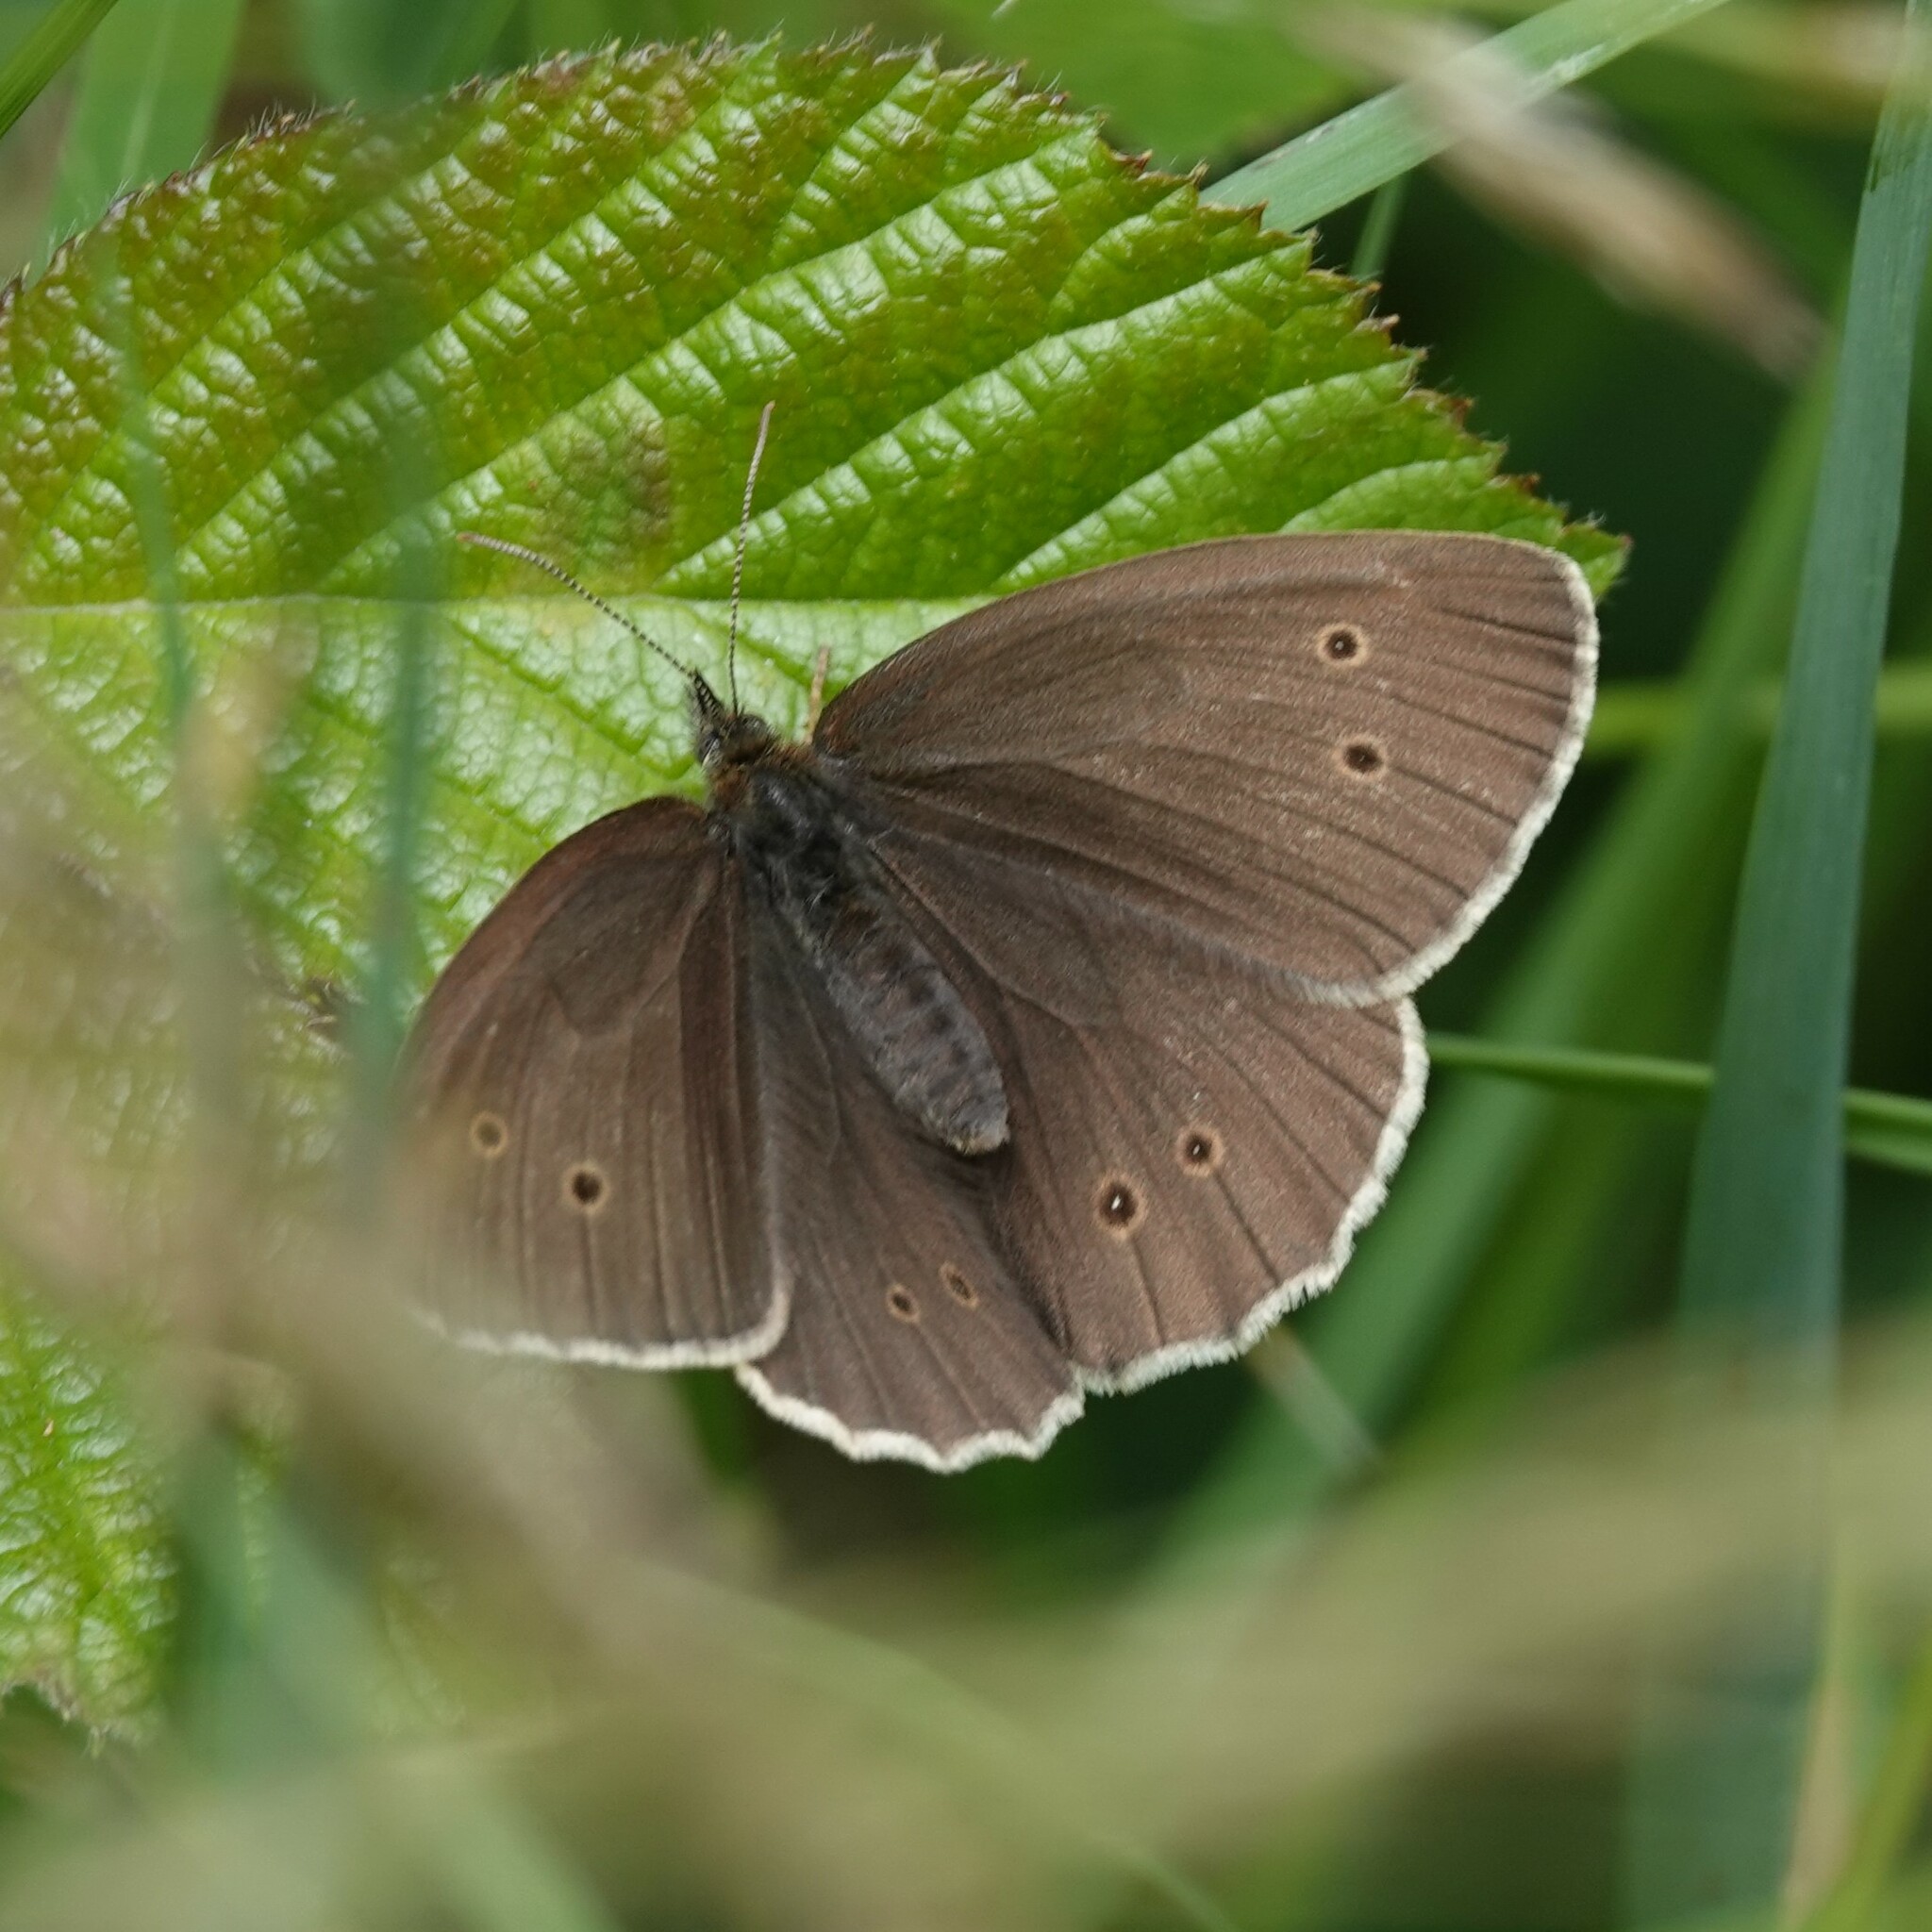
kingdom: Animalia
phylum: Arthropoda
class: Insecta
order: Lepidoptera
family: Nymphalidae
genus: Aphantopus
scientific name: Aphantopus hyperantus
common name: Ringlet
